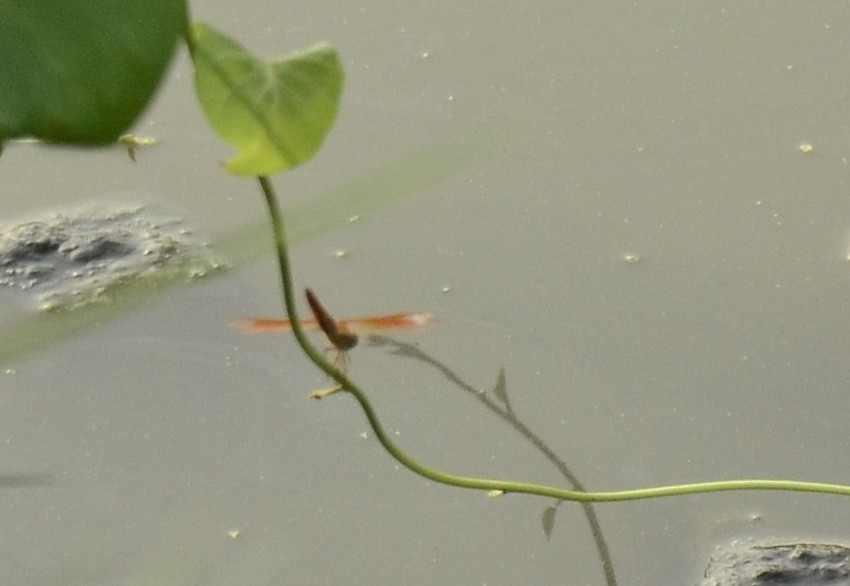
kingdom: Animalia
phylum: Arthropoda
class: Insecta
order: Odonata
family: Libellulidae
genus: Brachythemis
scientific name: Brachythemis contaminata
